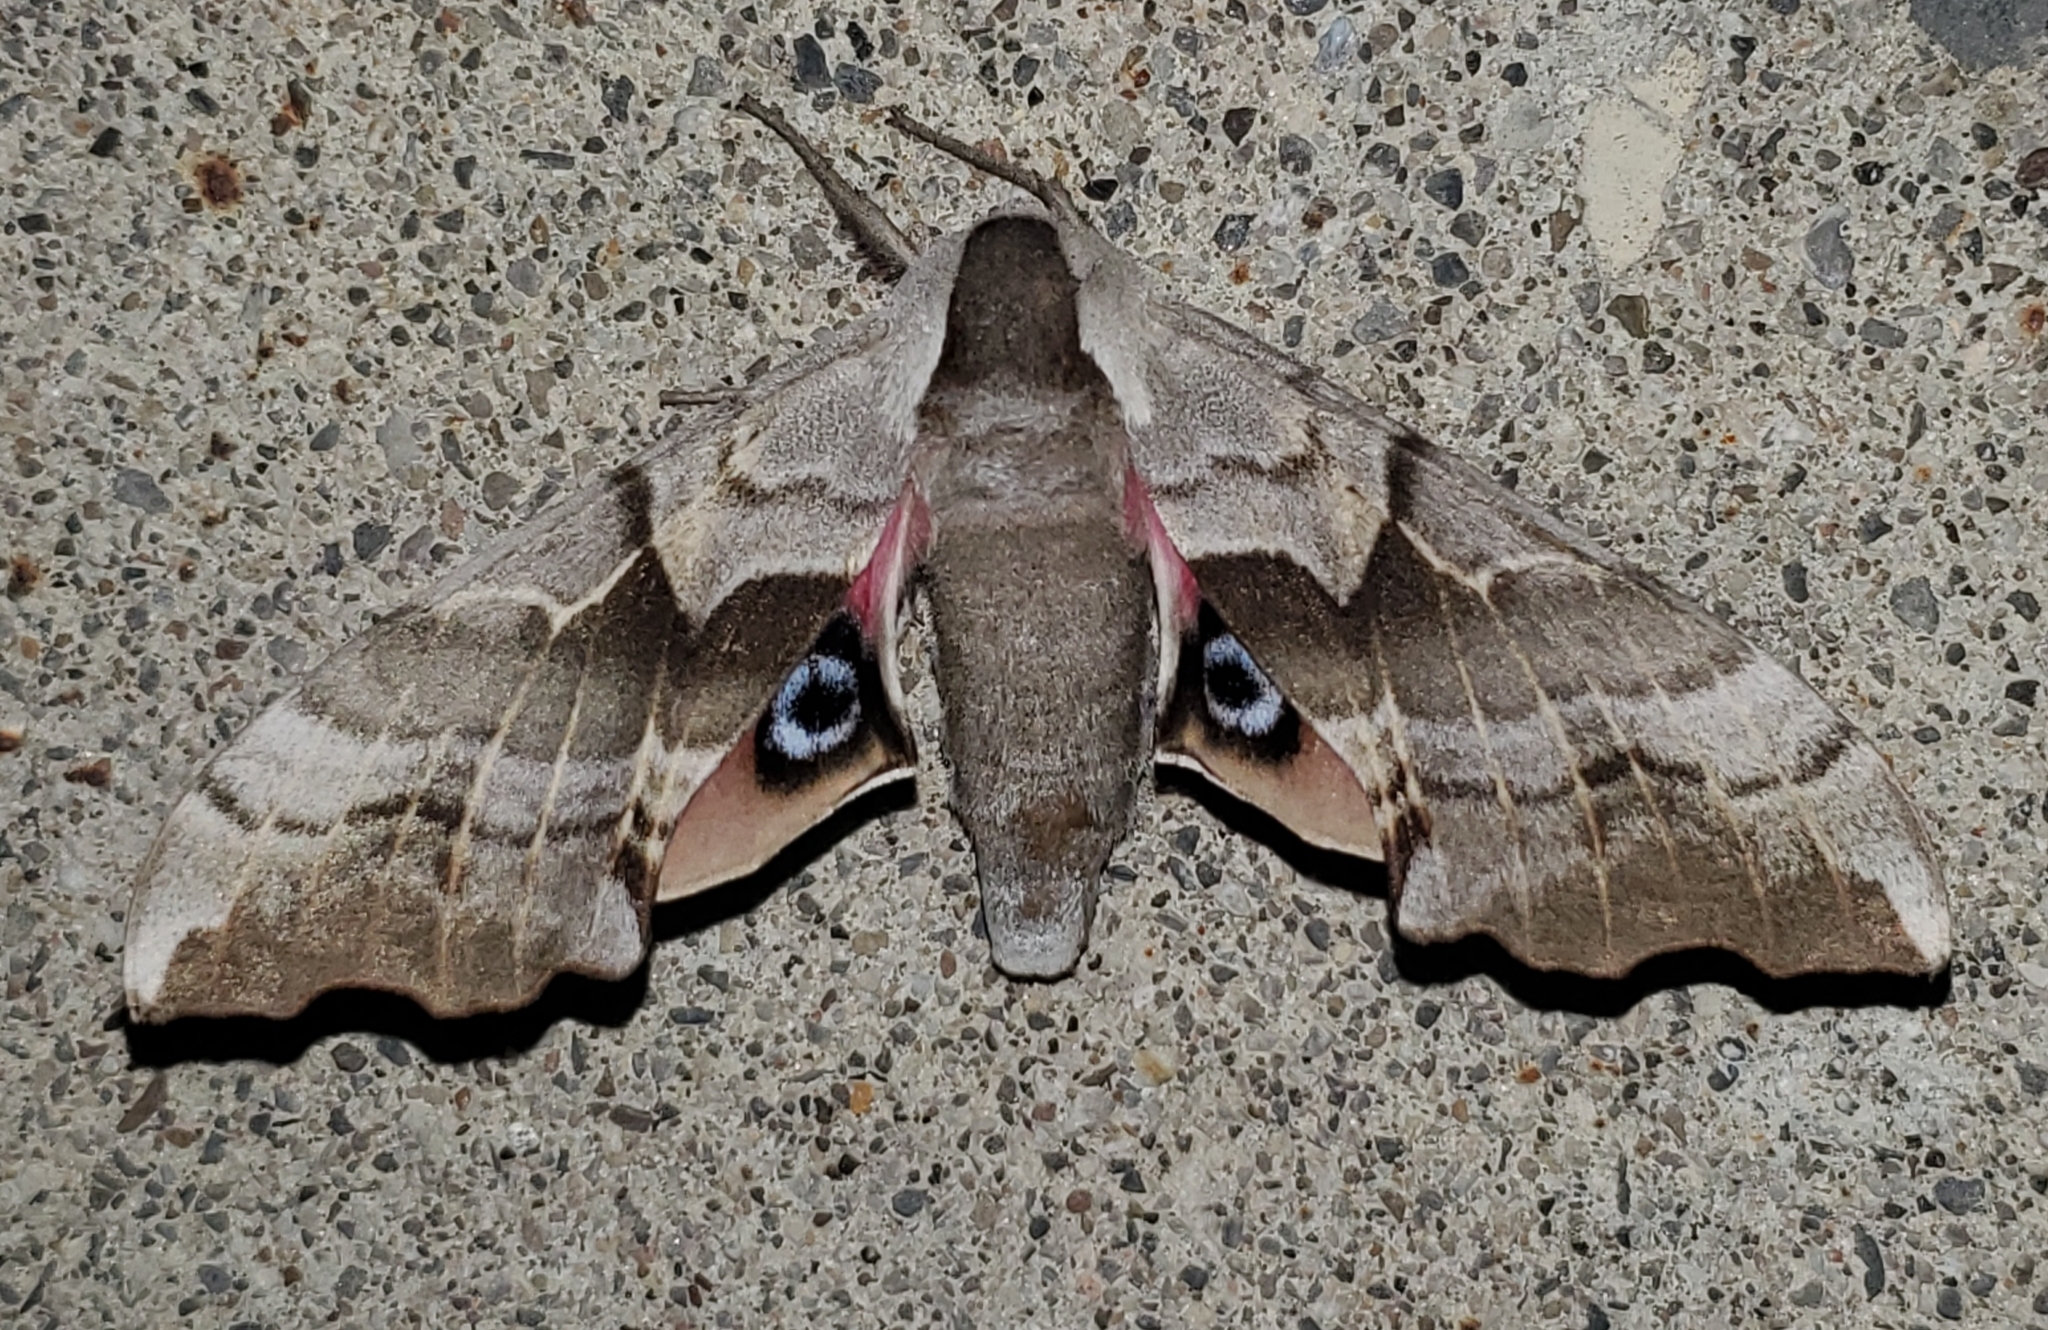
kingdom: Animalia
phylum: Arthropoda
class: Insecta
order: Lepidoptera
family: Sphingidae
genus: Smerinthus
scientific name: Smerinthus cerisyi
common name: Cerisy's sphinx moth
